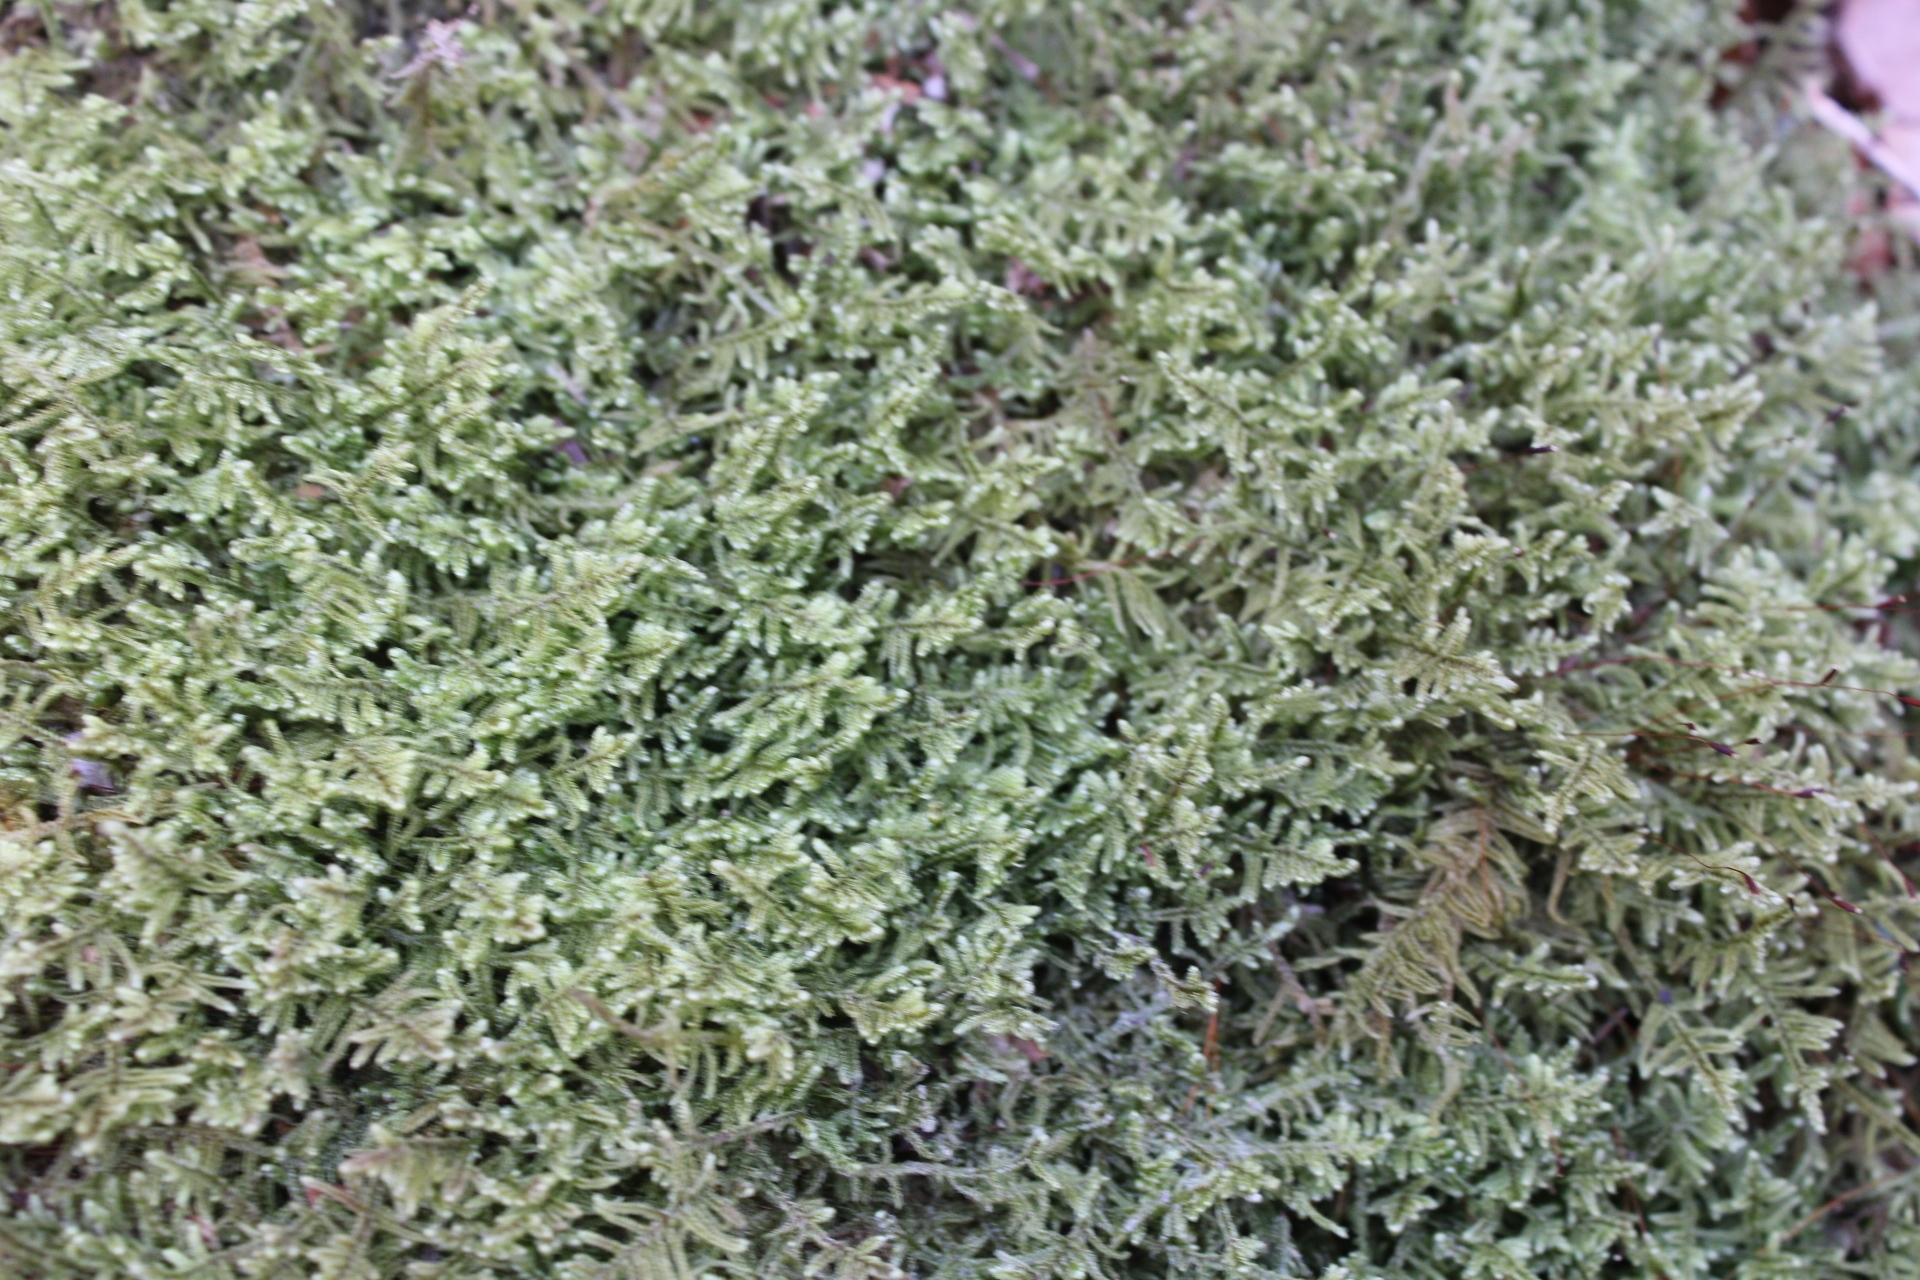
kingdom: Plantae
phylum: Bryophyta
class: Bryopsida
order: Hypnales
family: Callicladiaceae
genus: Callicladium
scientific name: Callicladium imponens
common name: Brocade moss
